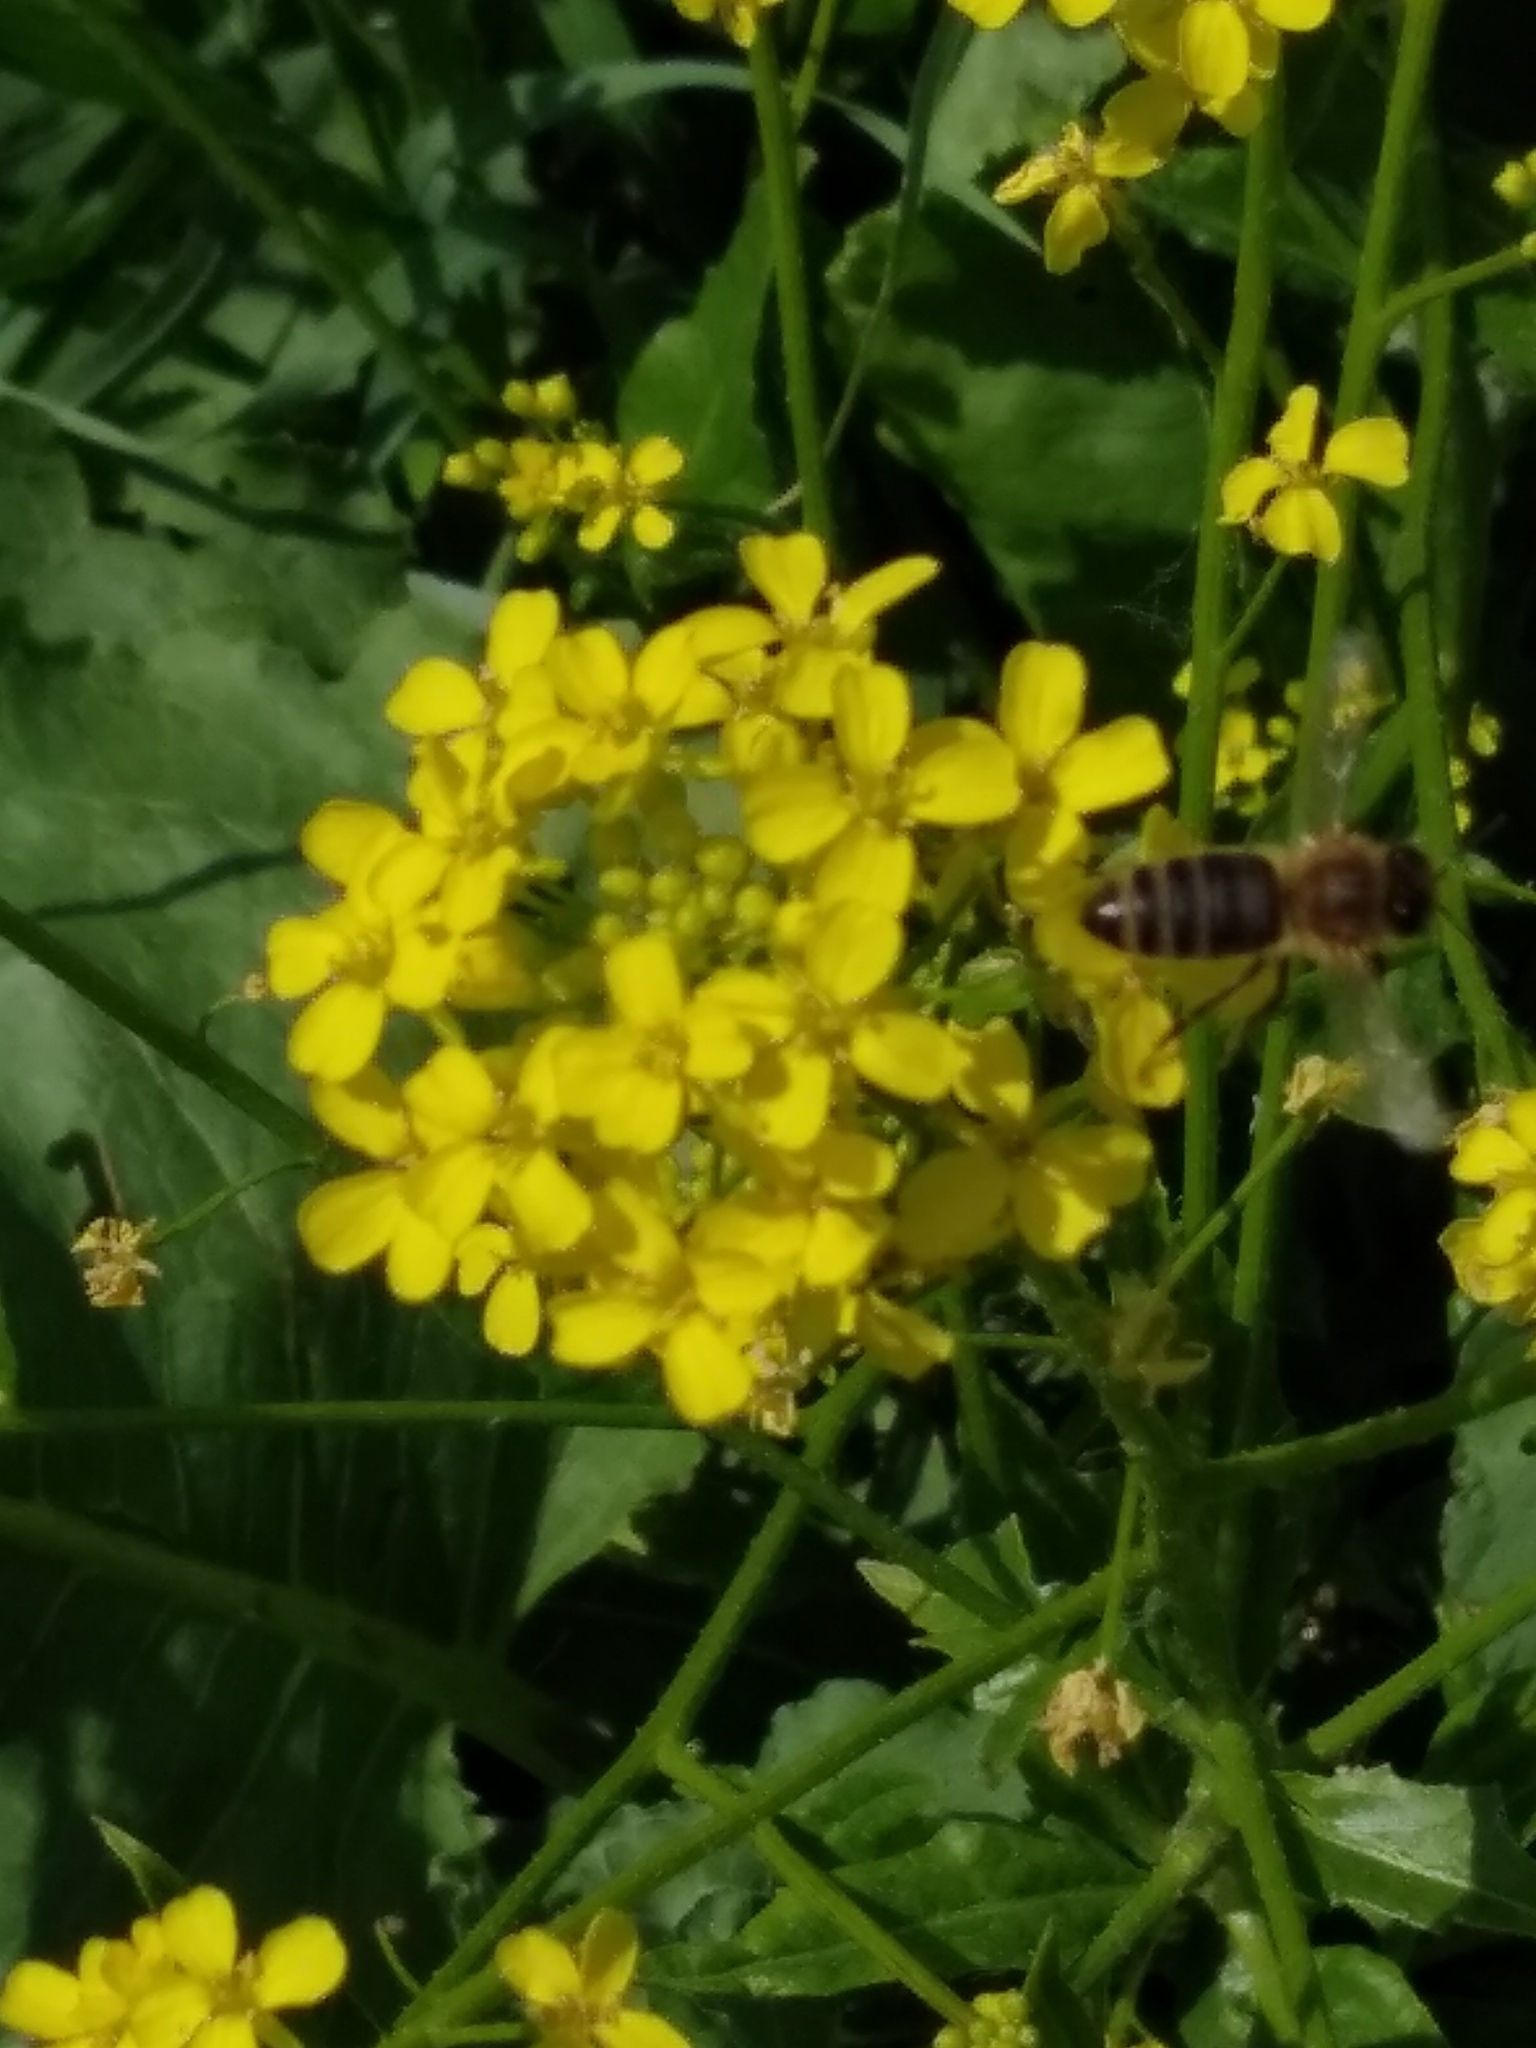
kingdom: Animalia
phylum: Arthropoda
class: Insecta
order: Hymenoptera
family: Apidae
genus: Apis
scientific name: Apis mellifera
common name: Honey bee
